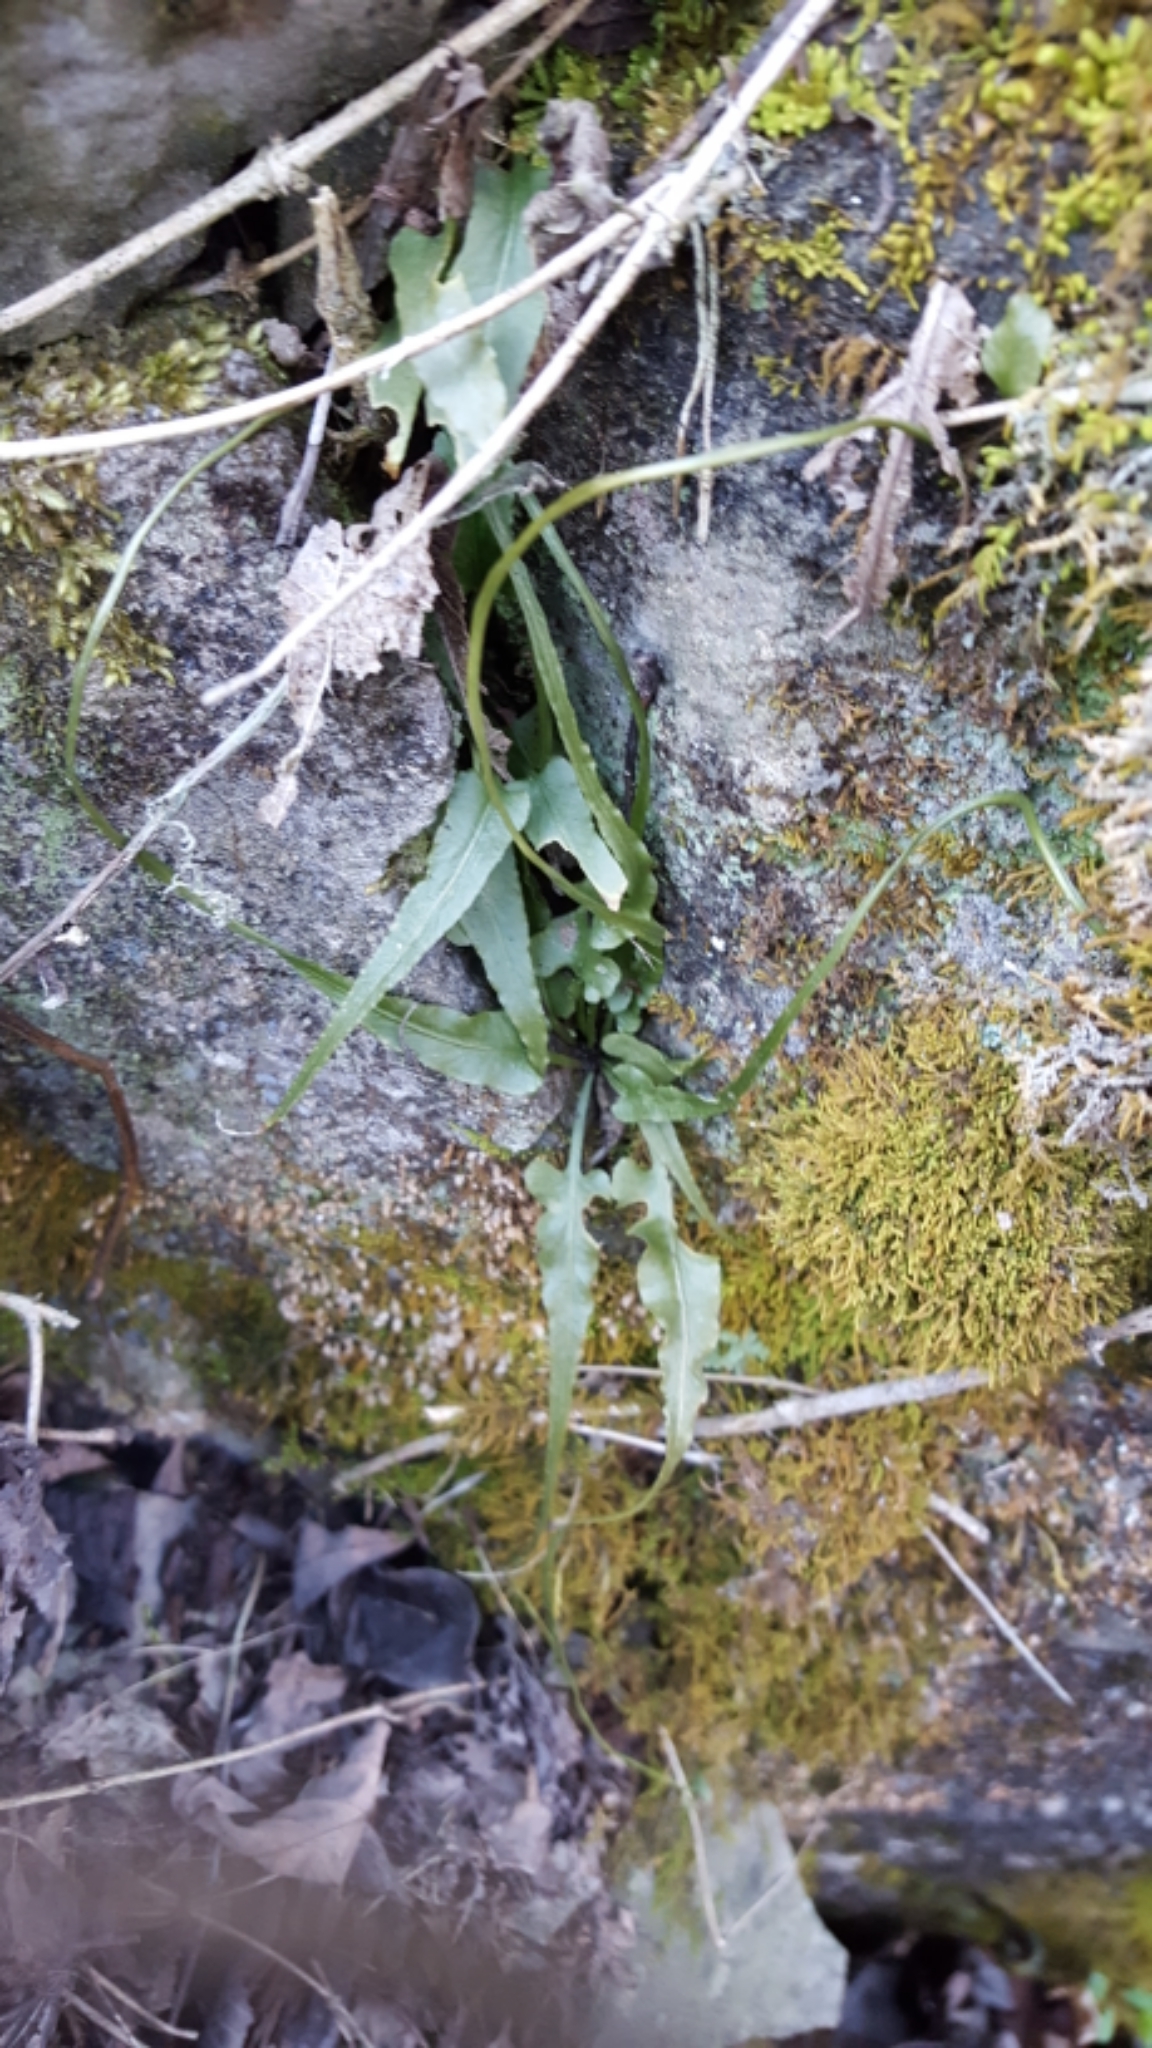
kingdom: Plantae
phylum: Tracheophyta
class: Polypodiopsida
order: Polypodiales
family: Aspleniaceae
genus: Asplenium
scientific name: Asplenium rhizophyllum
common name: Walking fern
